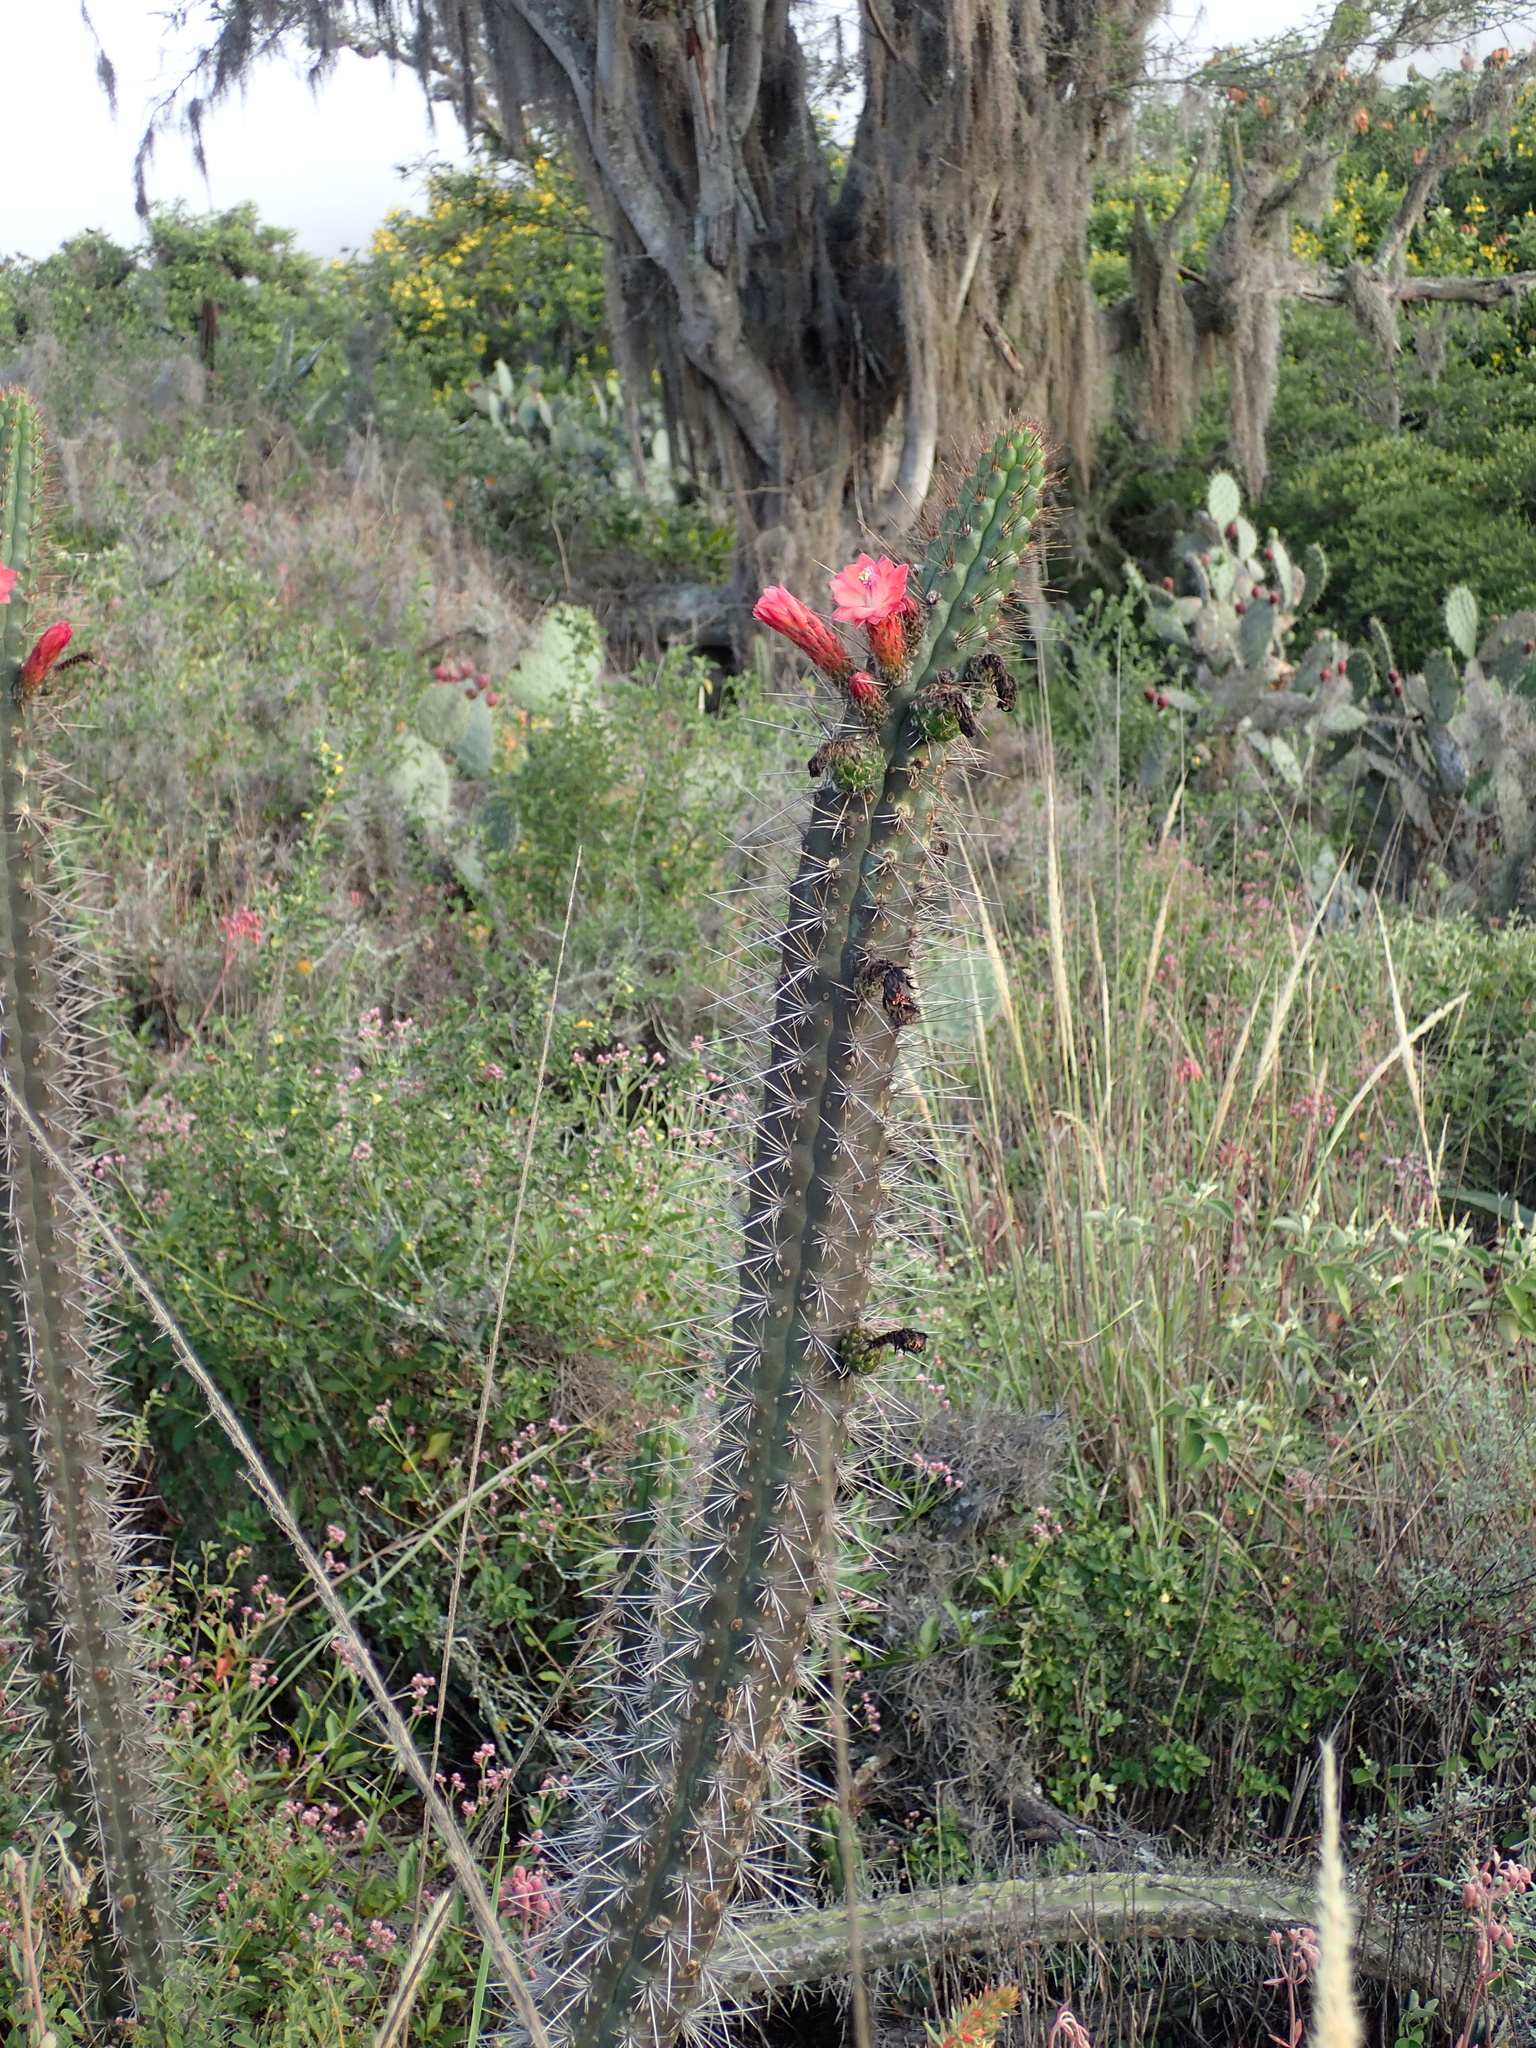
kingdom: Plantae
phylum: Tracheophyta
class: Magnoliopsida
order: Caryophyllales
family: Cactaceae
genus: Borzicactus
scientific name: Borzicactus sepium
